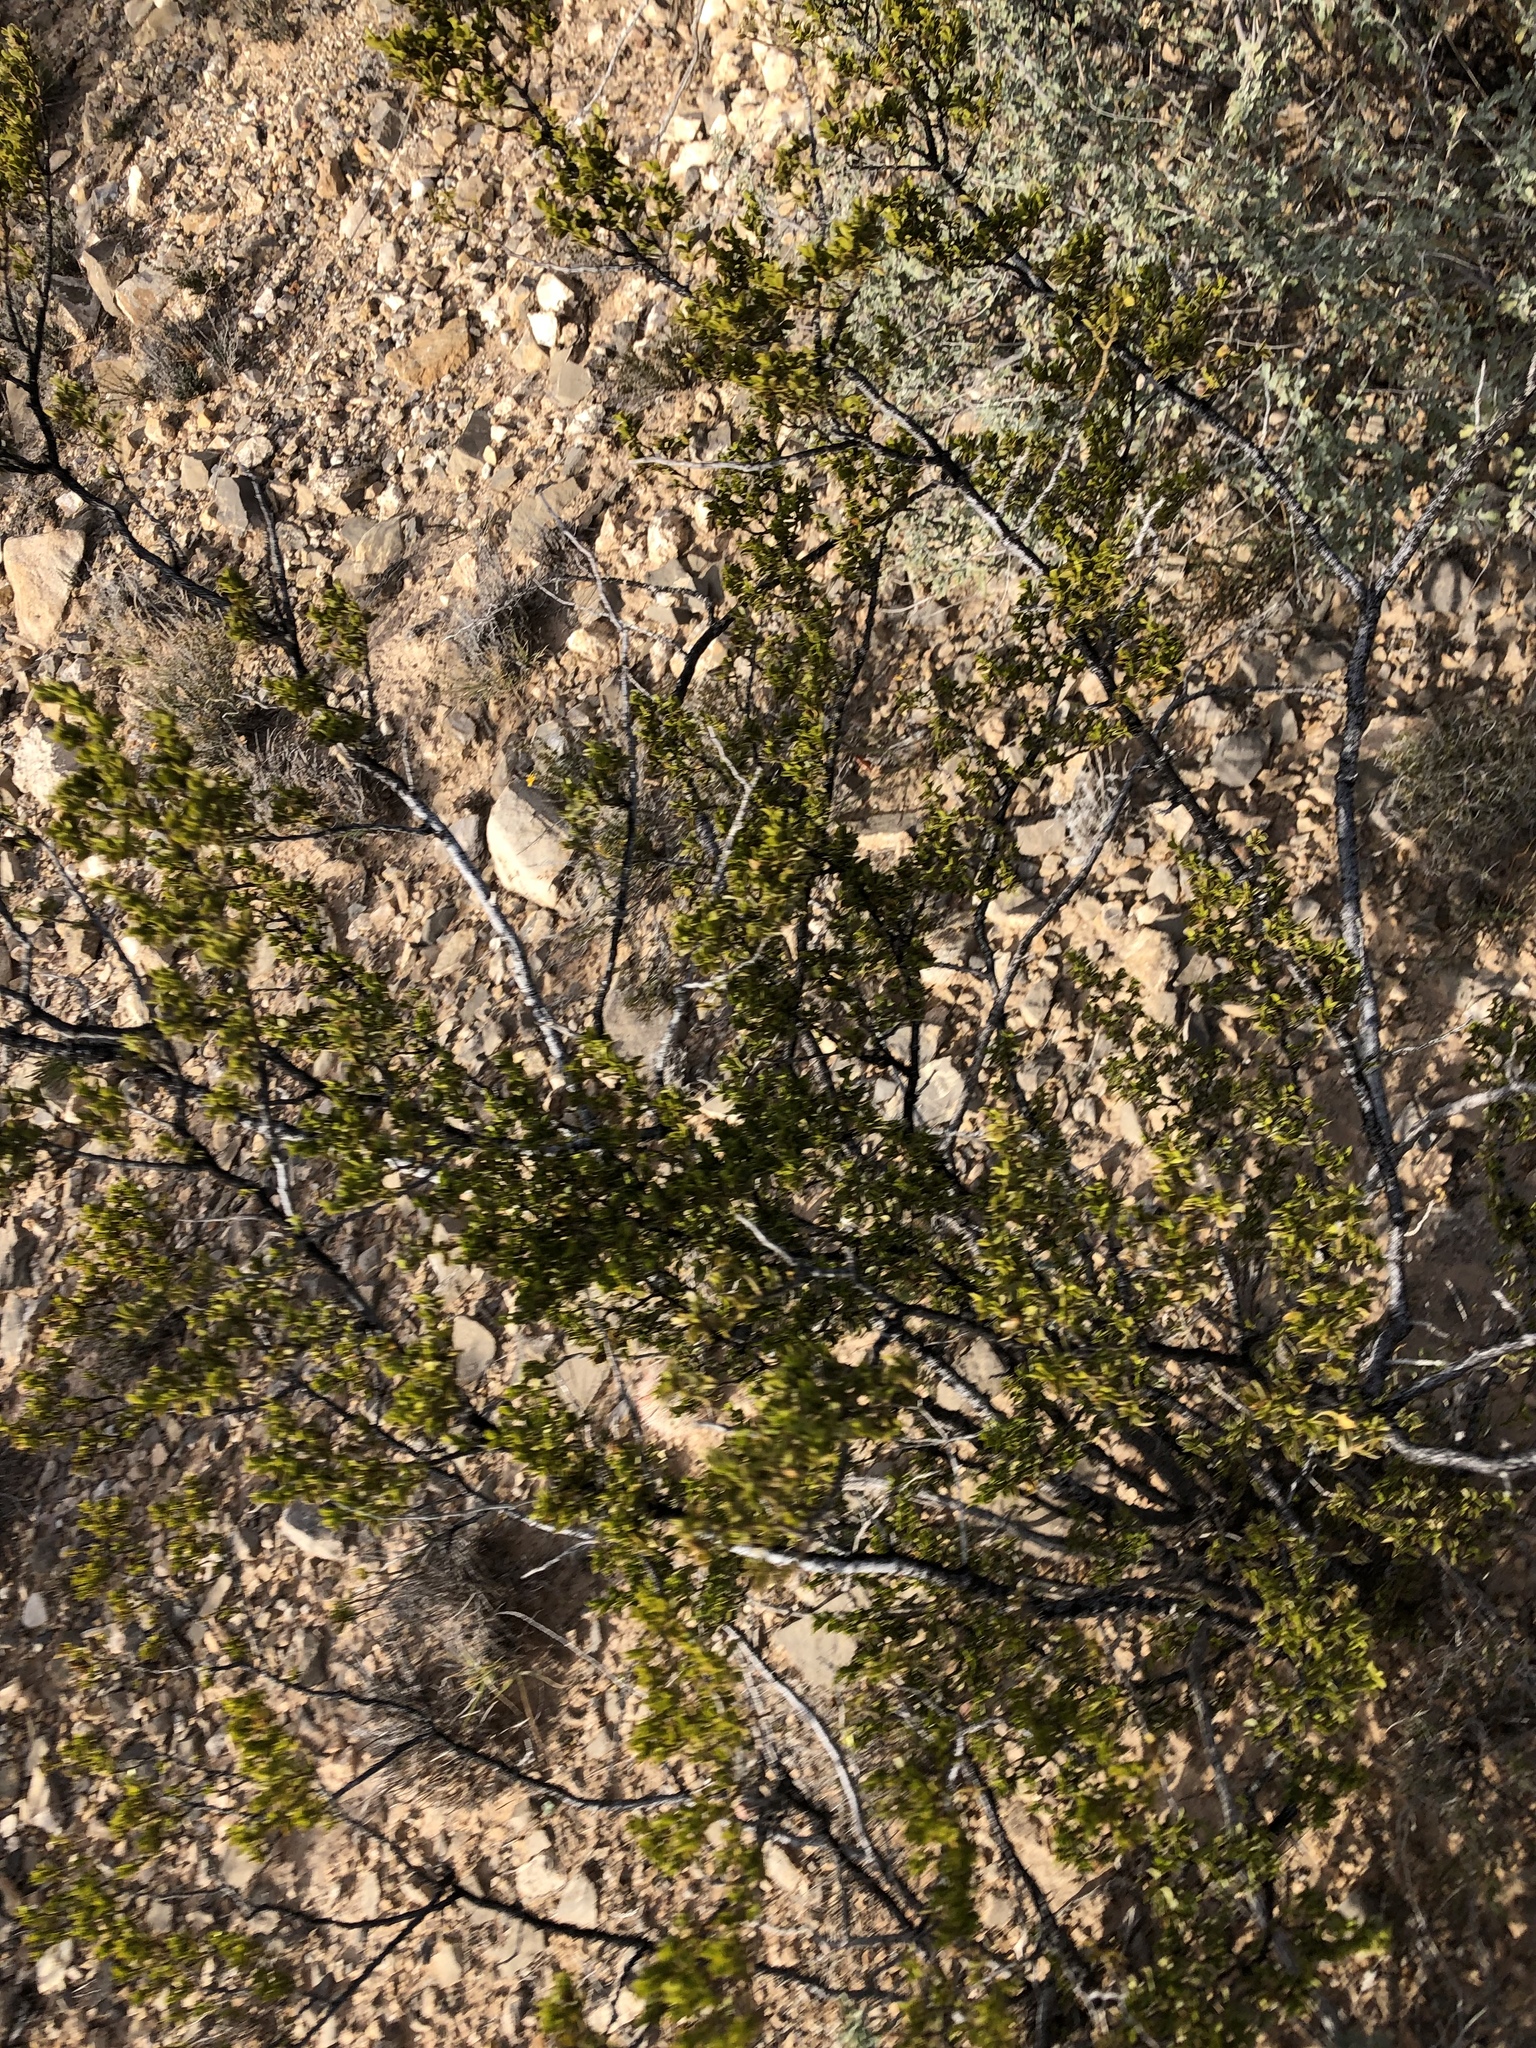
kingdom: Plantae
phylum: Tracheophyta
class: Magnoliopsida
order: Zygophyllales
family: Zygophyllaceae
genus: Larrea
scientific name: Larrea tridentata
